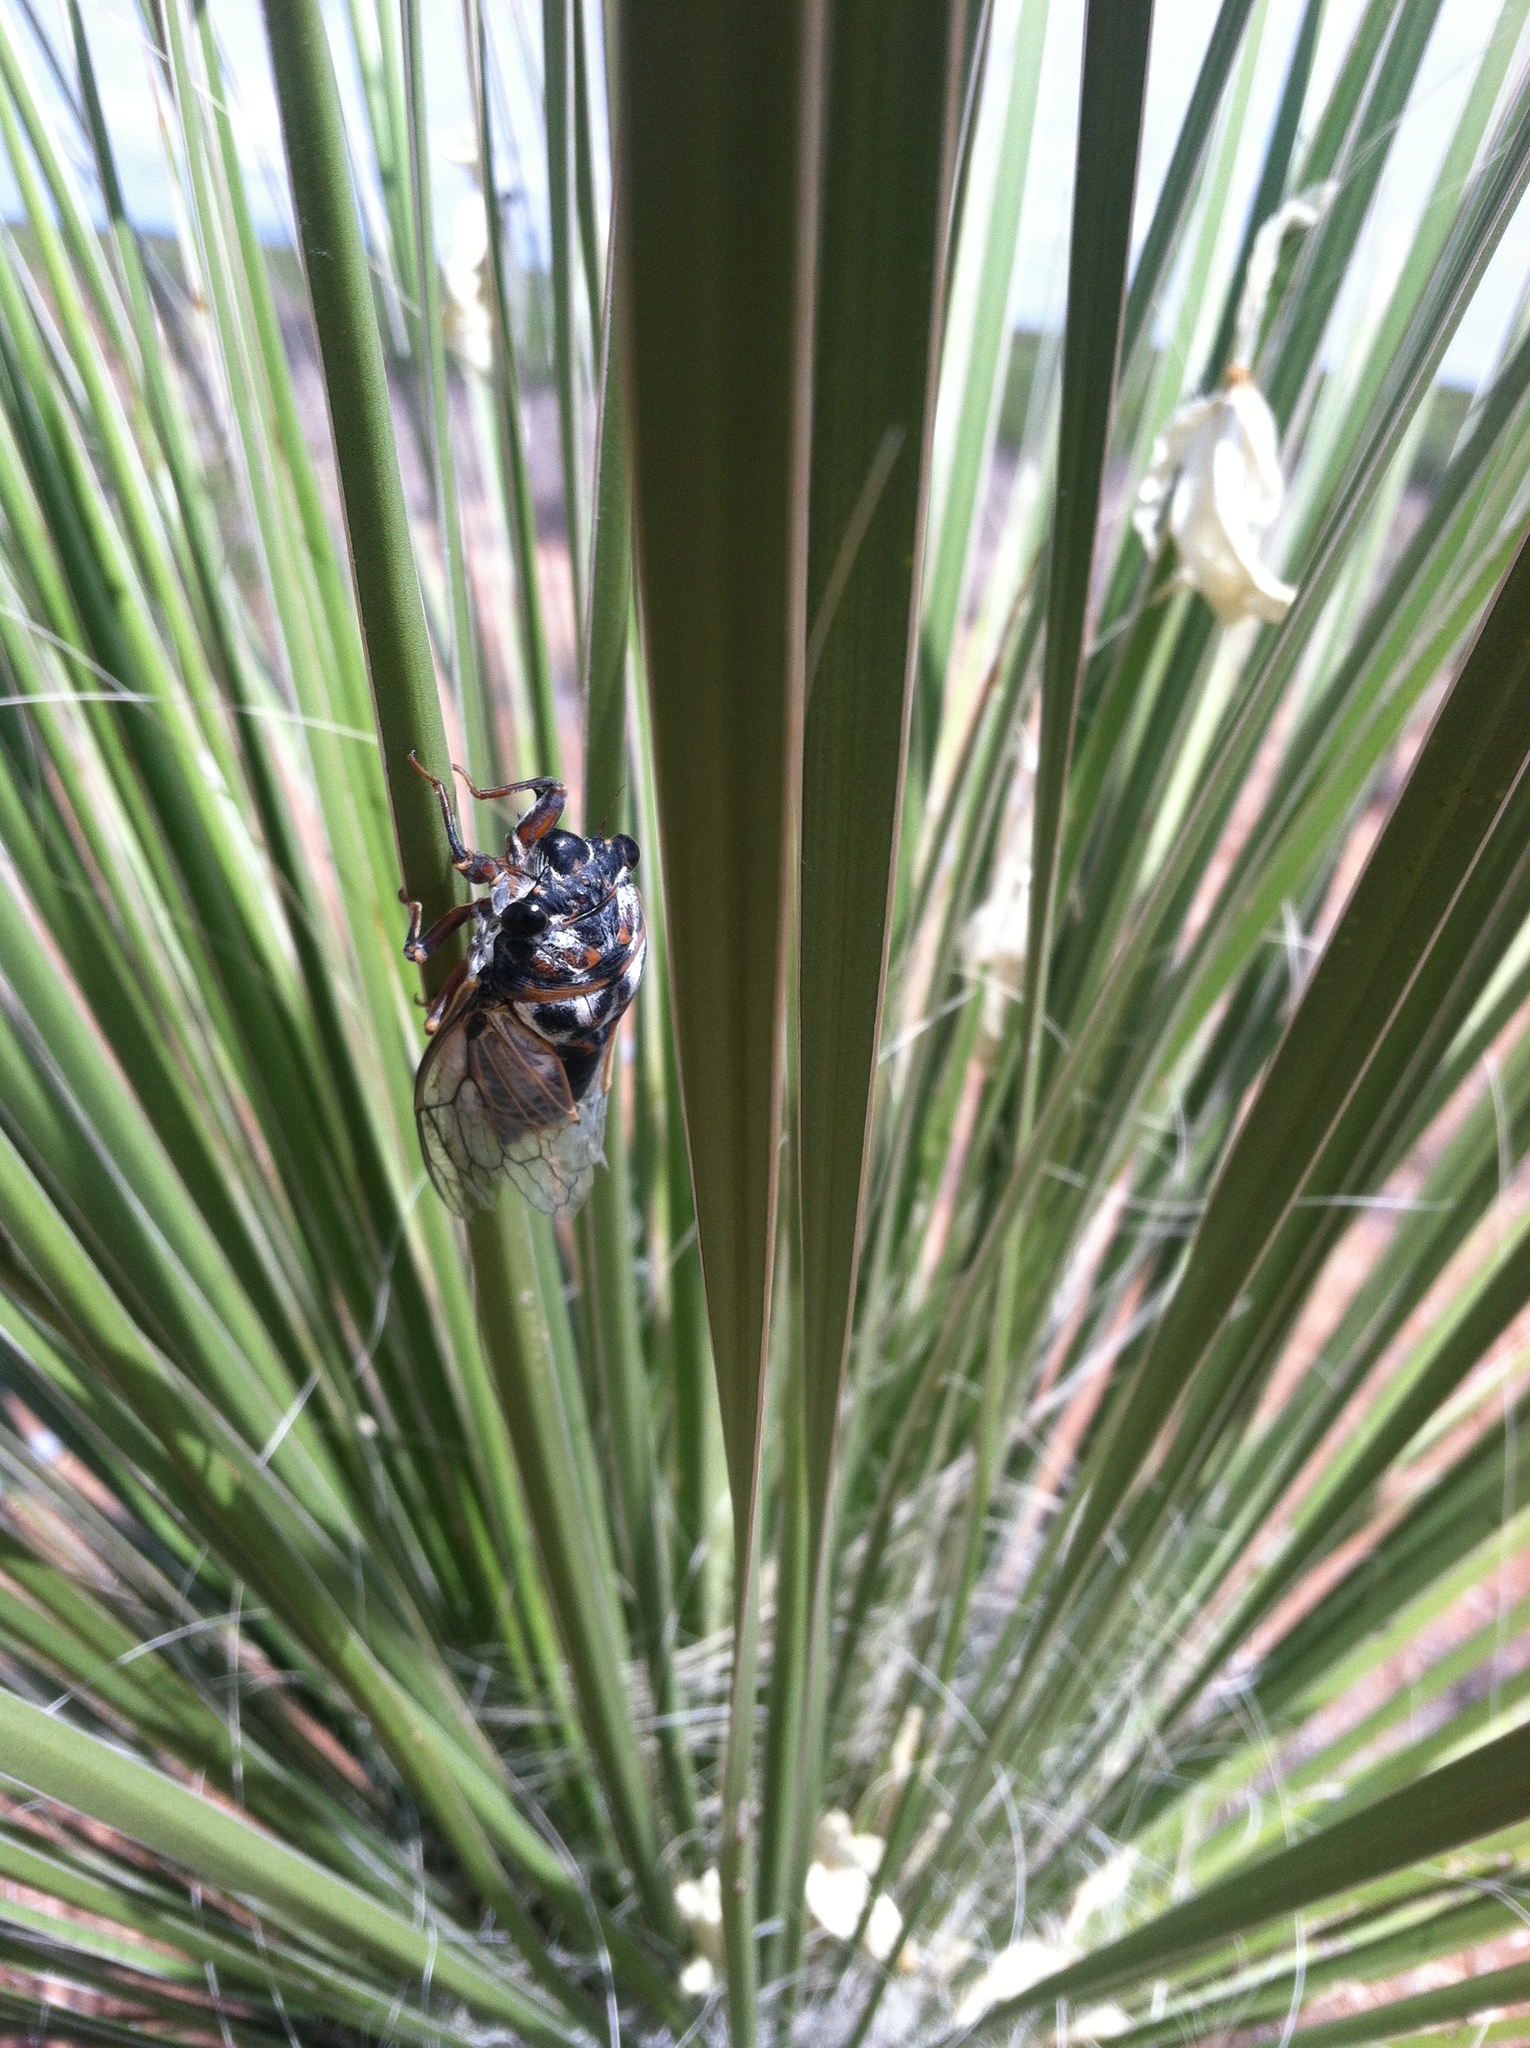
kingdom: Animalia
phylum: Arthropoda
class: Insecta
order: Hemiptera
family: Cicadidae
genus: Hadoa
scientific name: Hadoa townsendii
